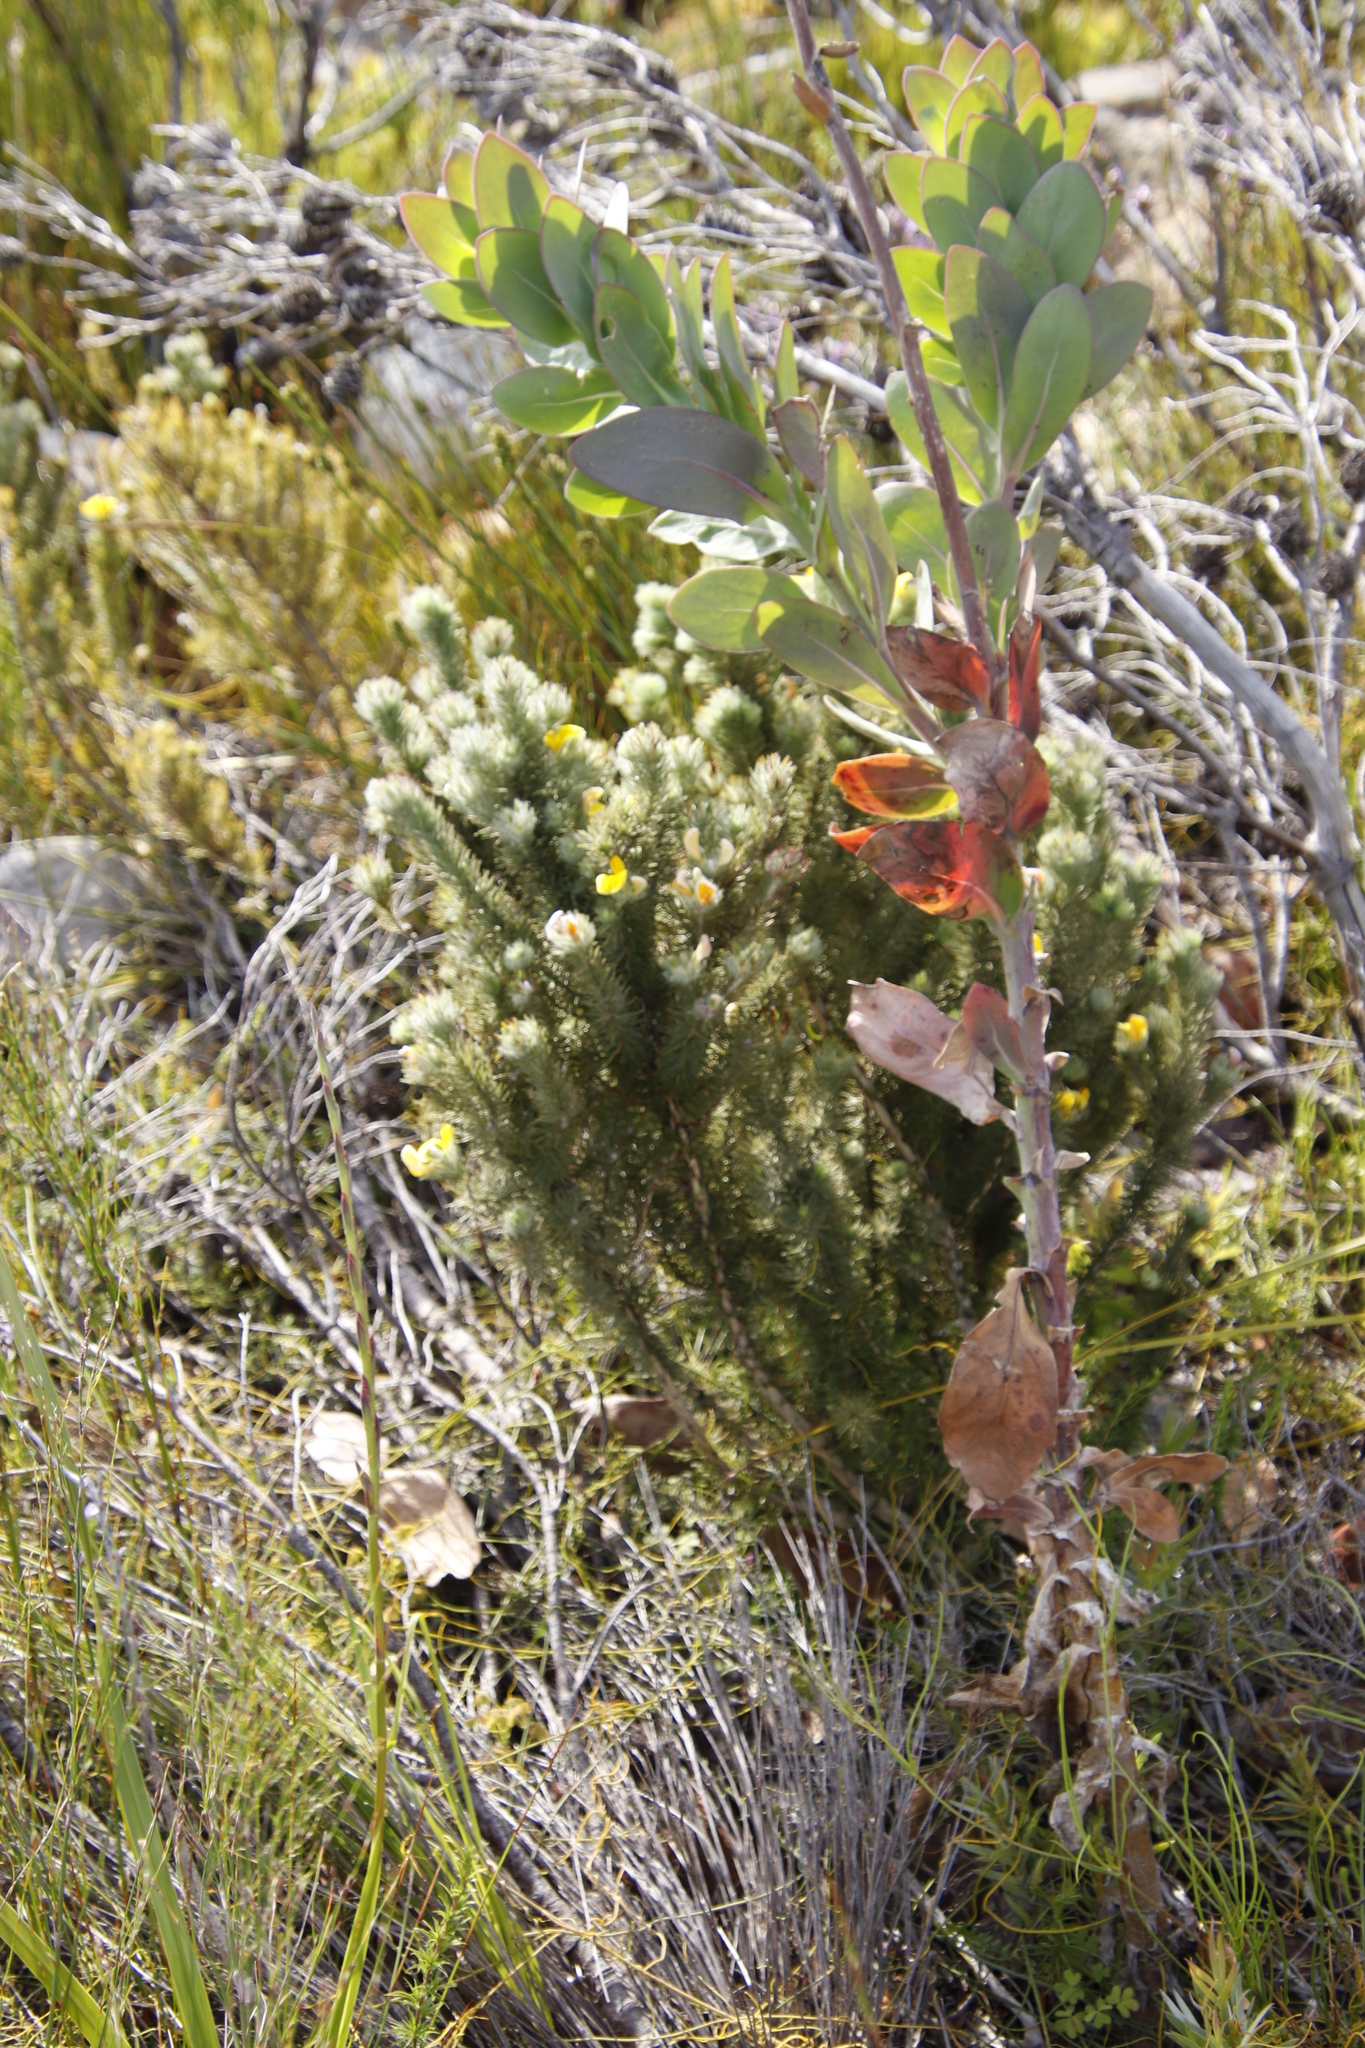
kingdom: Plantae
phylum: Tracheophyta
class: Magnoliopsida
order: Fabales
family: Fabaceae
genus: Aspalathus
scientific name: Aspalathus chenopoda
